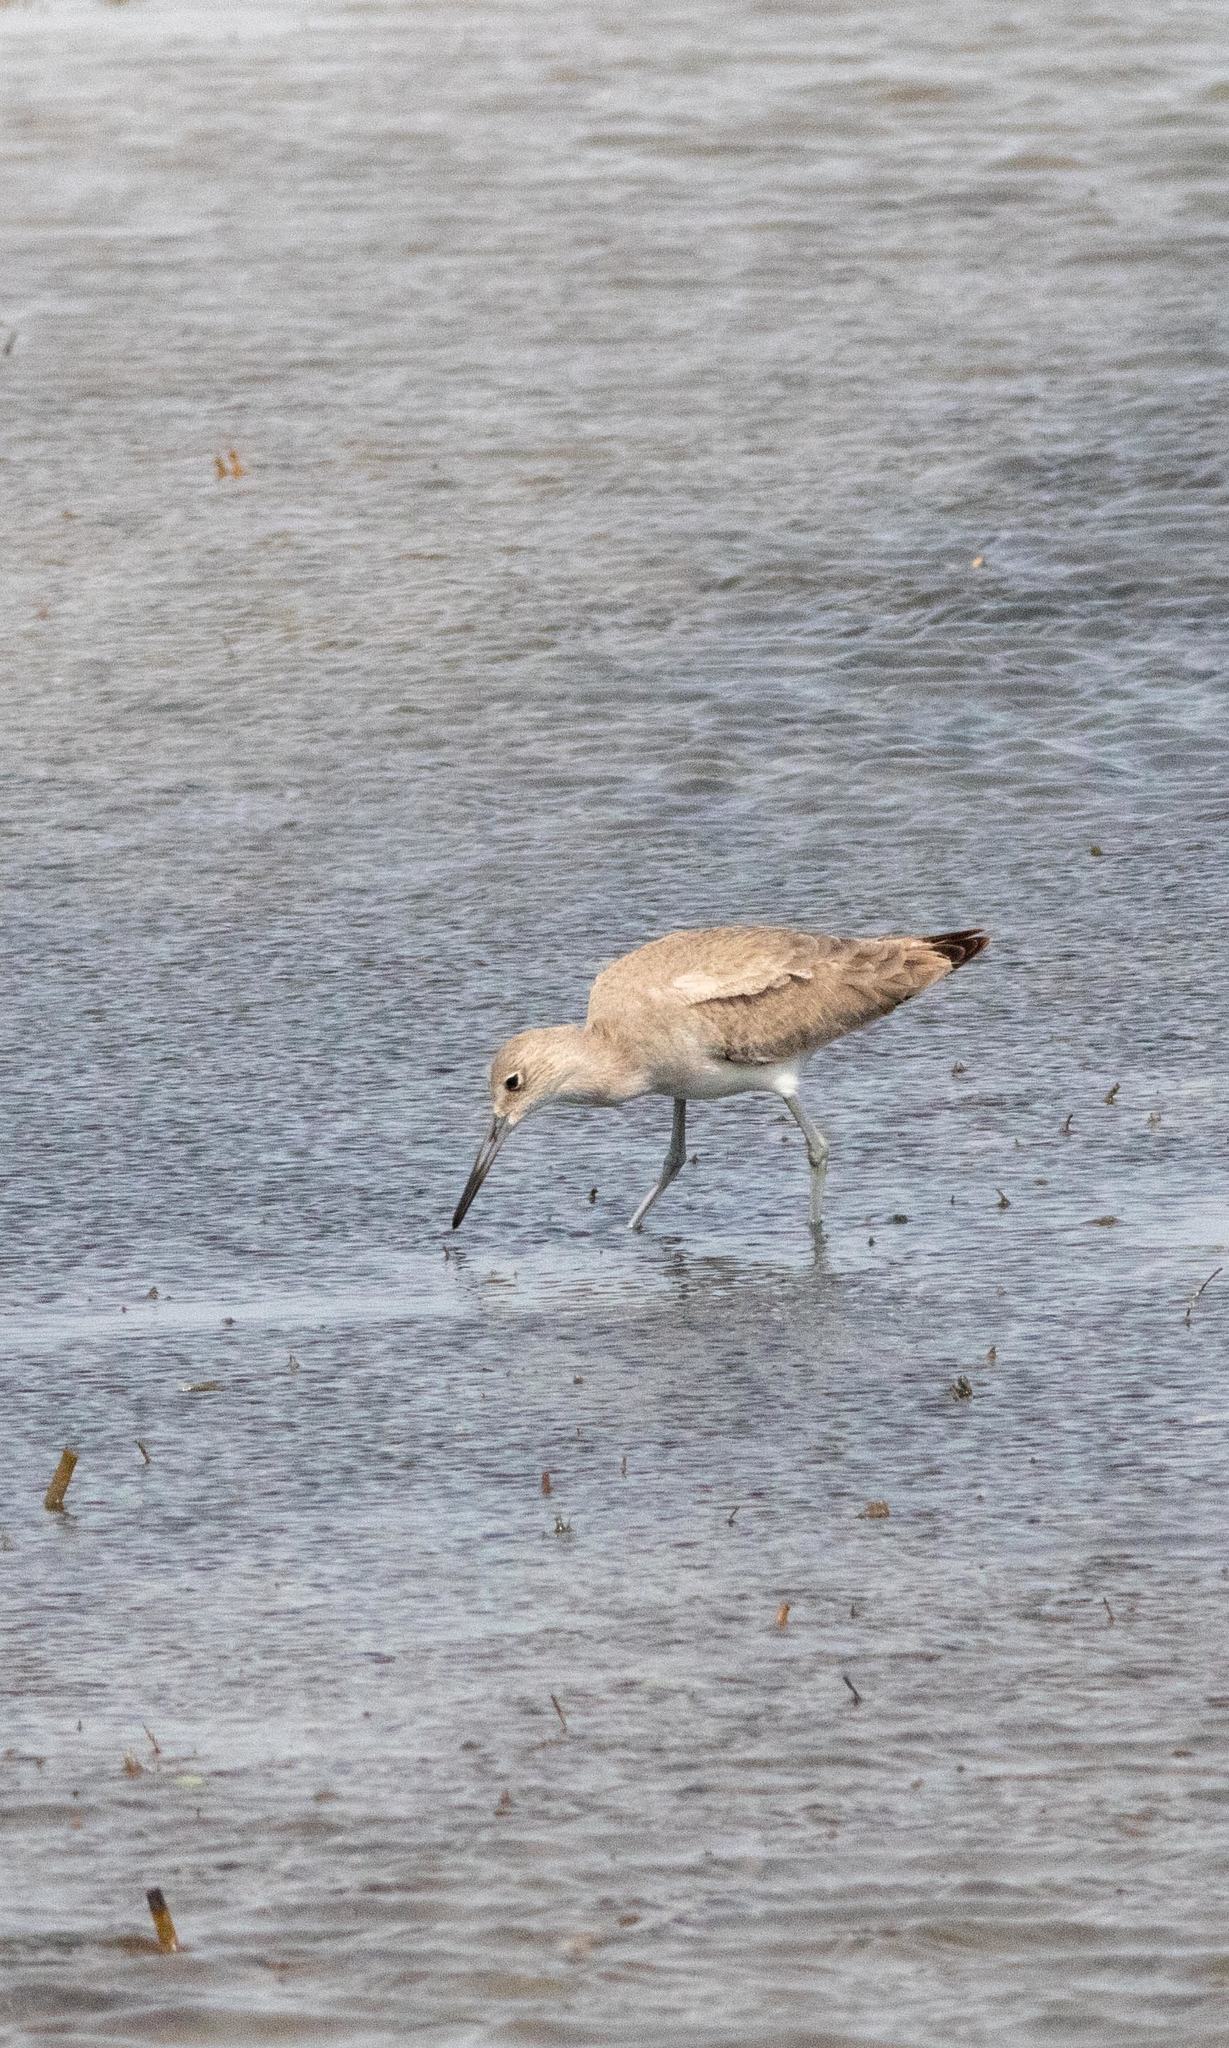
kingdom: Animalia
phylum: Chordata
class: Aves
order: Charadriiformes
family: Scolopacidae
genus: Tringa
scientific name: Tringa semipalmata
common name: Willet
